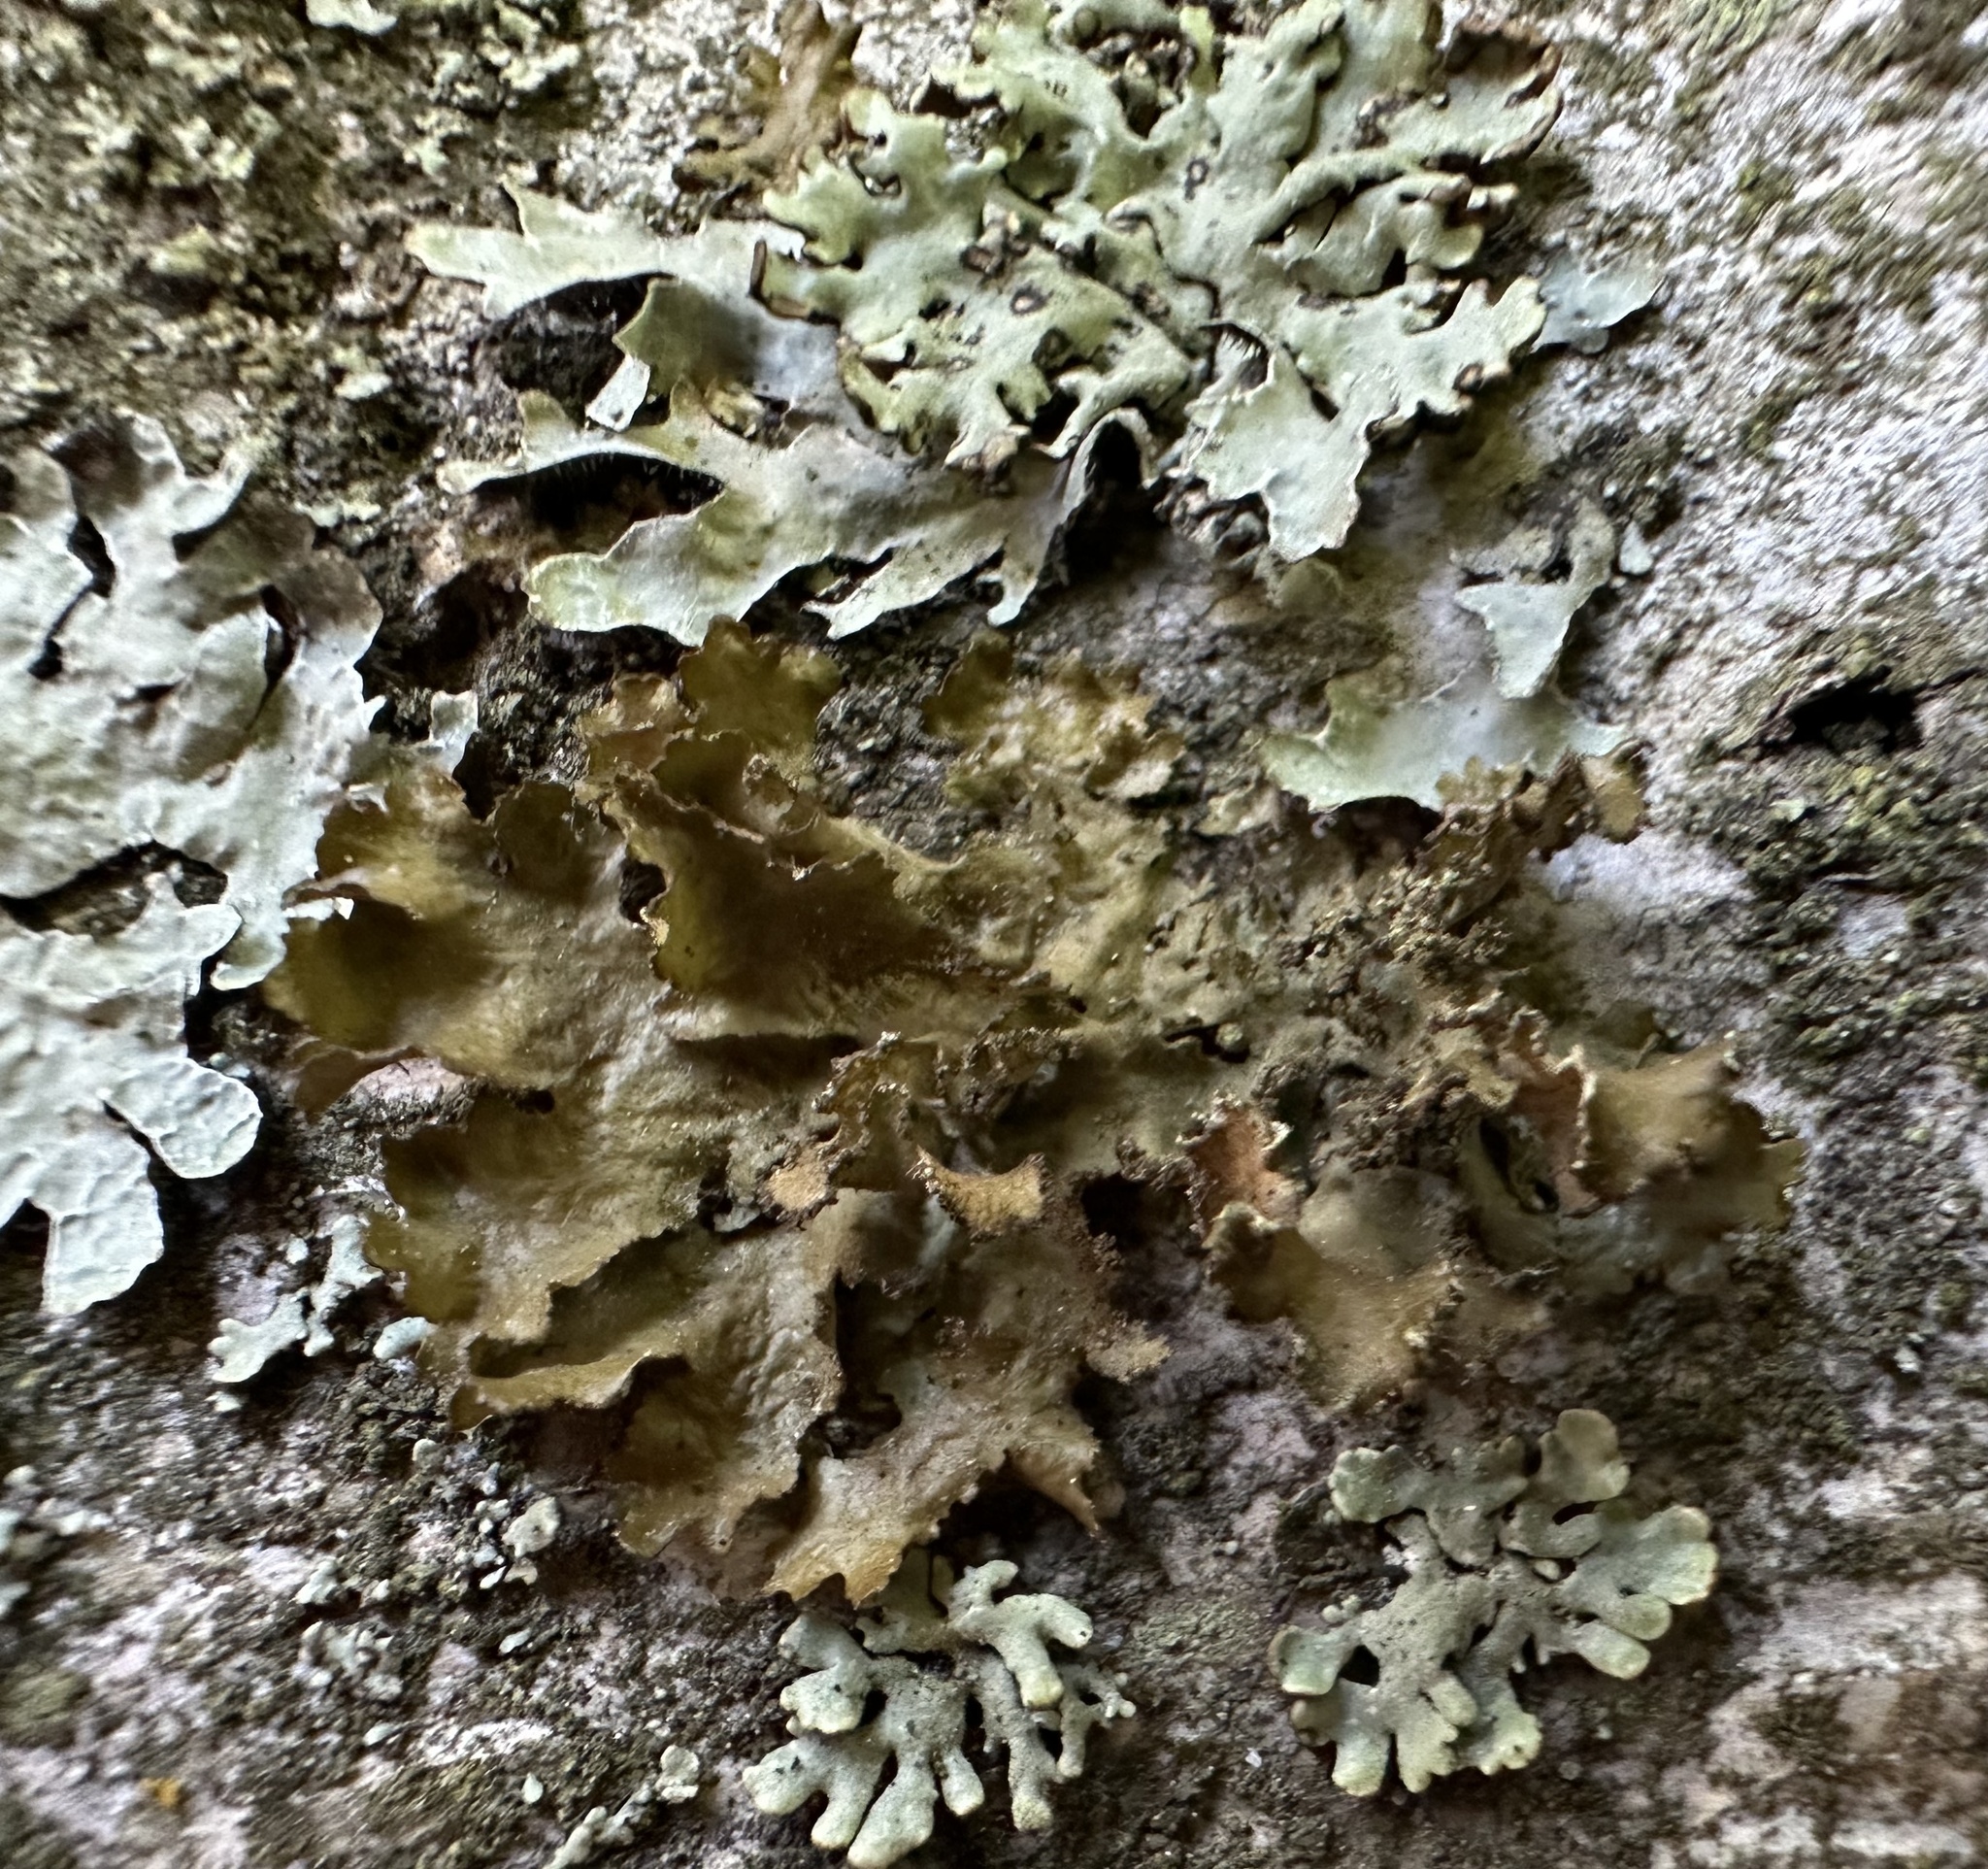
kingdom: Fungi
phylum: Ascomycota
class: Lecanoromycetes
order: Lecanorales
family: Parmeliaceae
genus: Nephromopsis
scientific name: Nephromopsis chlorophylla
